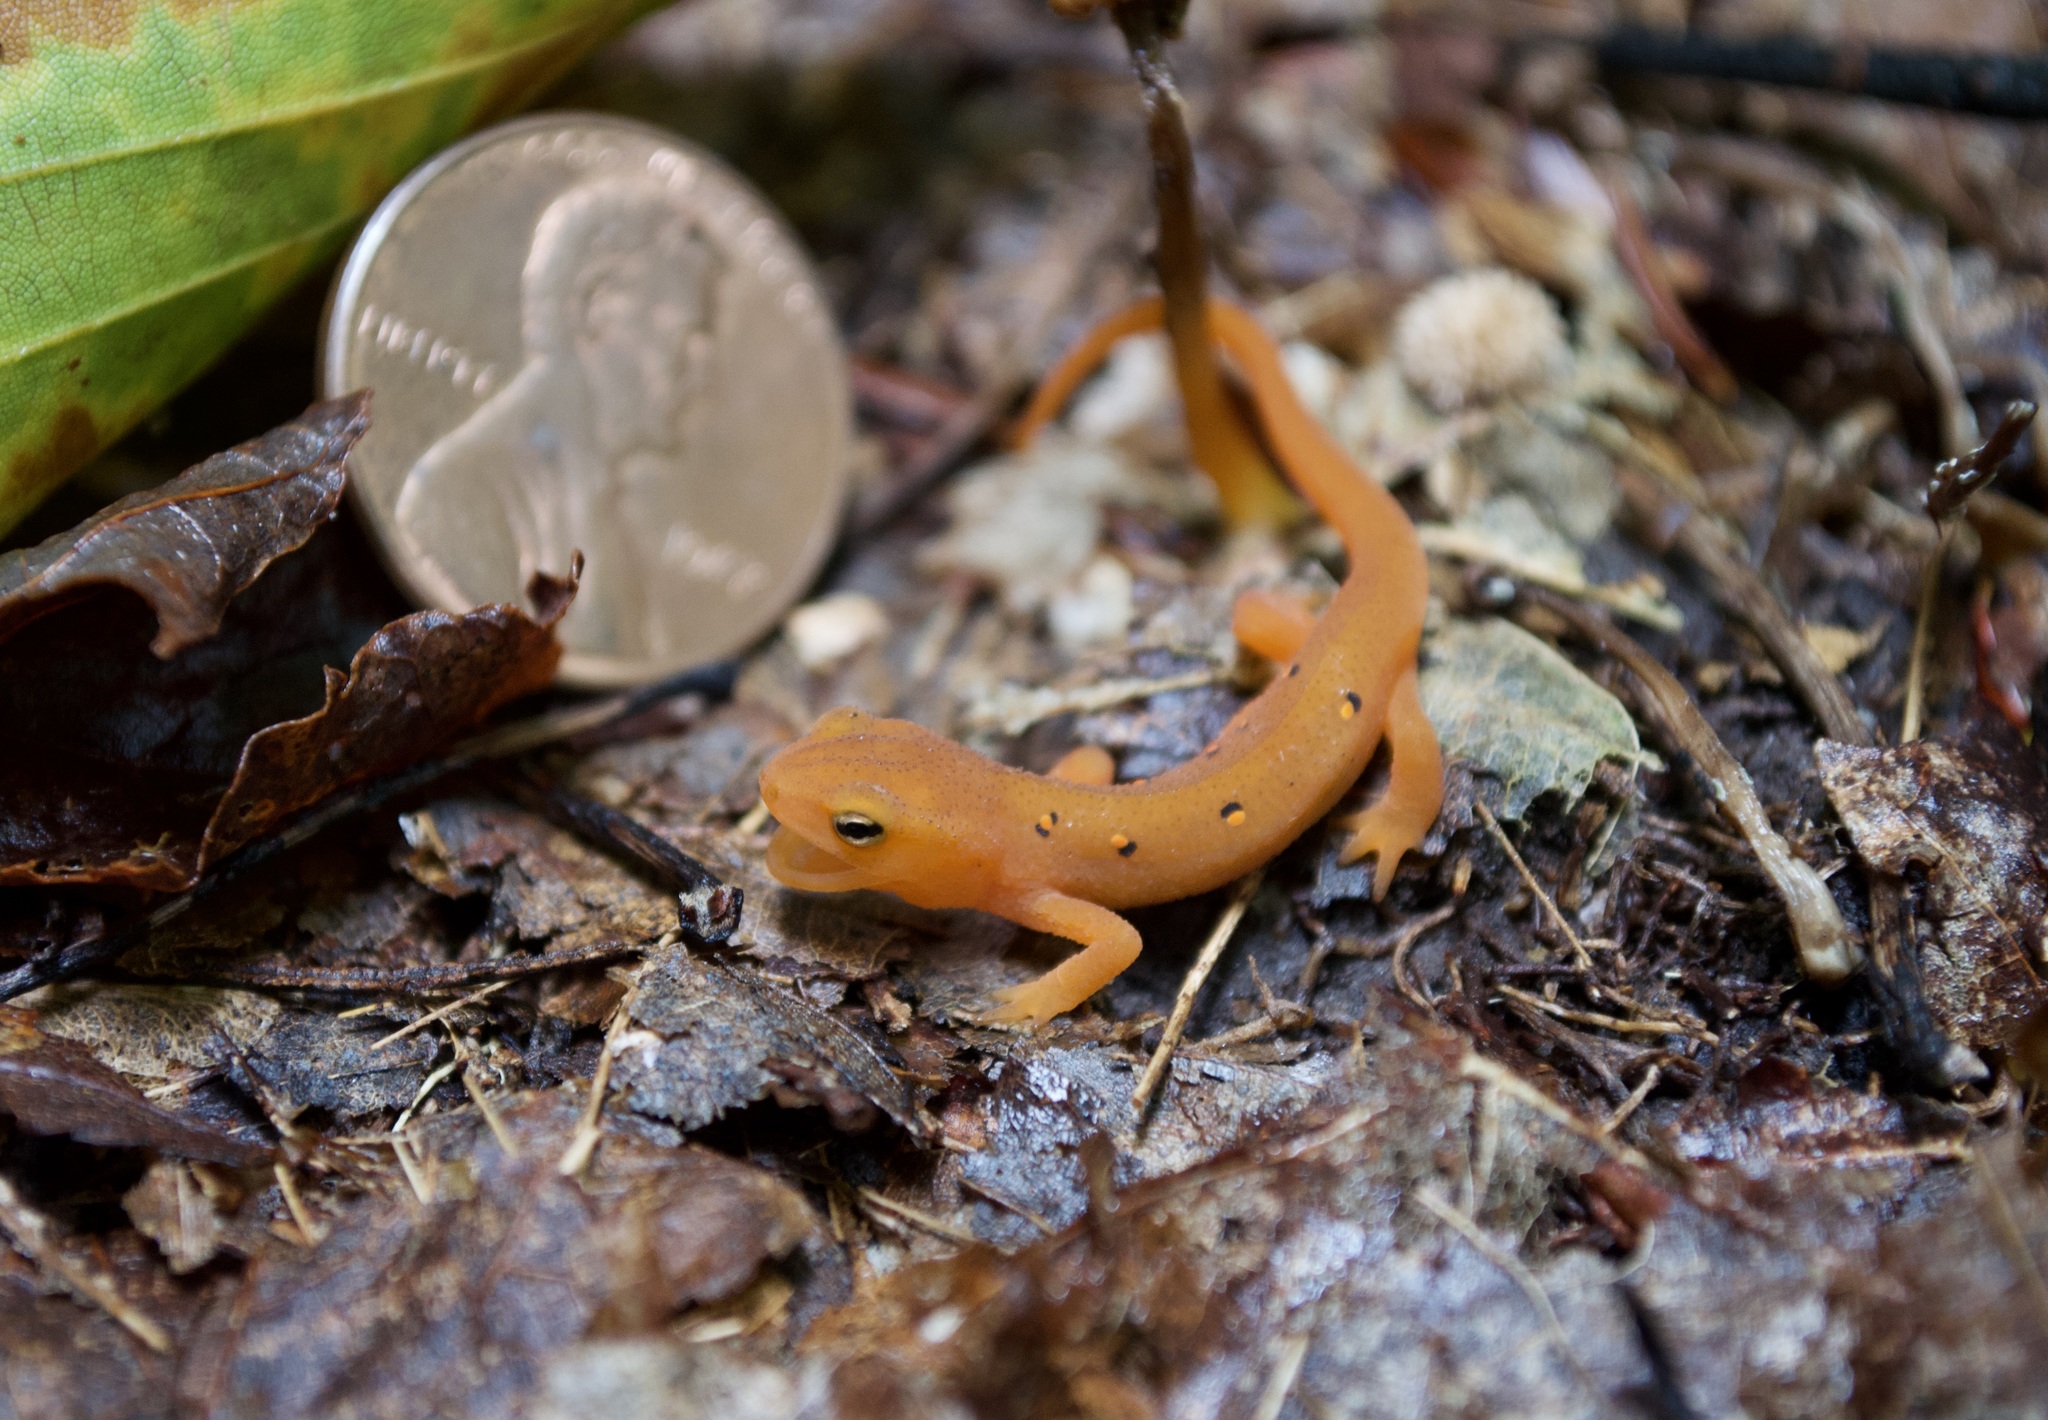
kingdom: Animalia
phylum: Chordata
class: Amphibia
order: Caudata
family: Salamandridae
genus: Notophthalmus
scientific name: Notophthalmus viridescens
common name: Eastern newt
